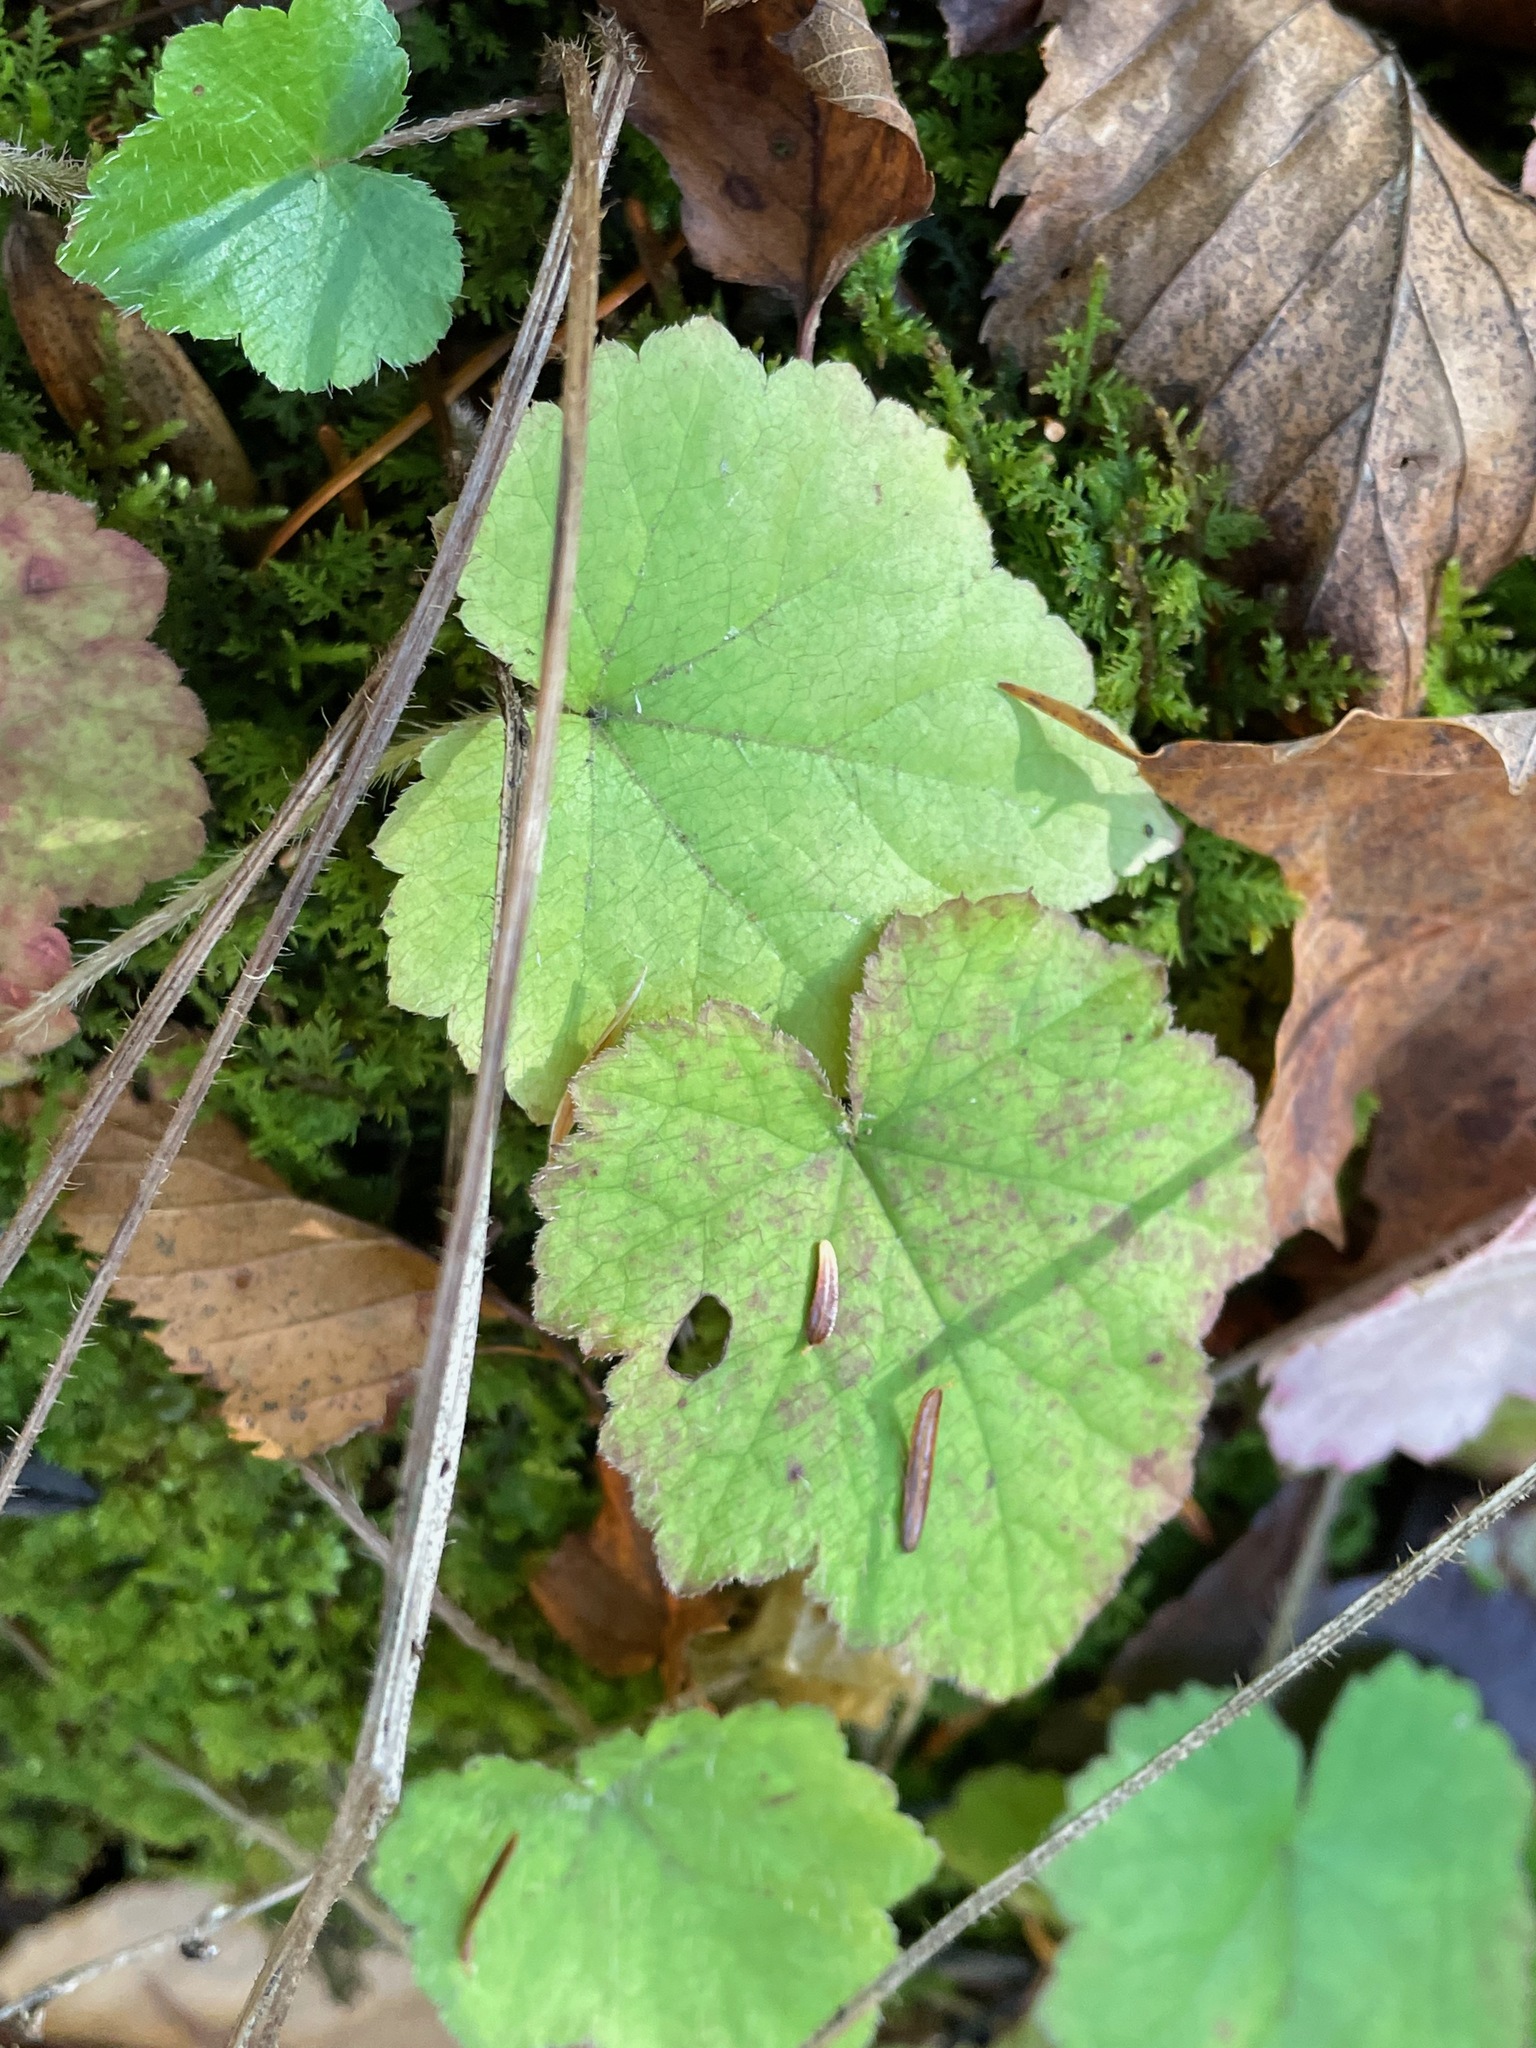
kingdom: Plantae
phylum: Tracheophyta
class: Magnoliopsida
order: Saxifragales
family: Saxifragaceae
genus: Mitella
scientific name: Mitella diphylla
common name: Coolwort
